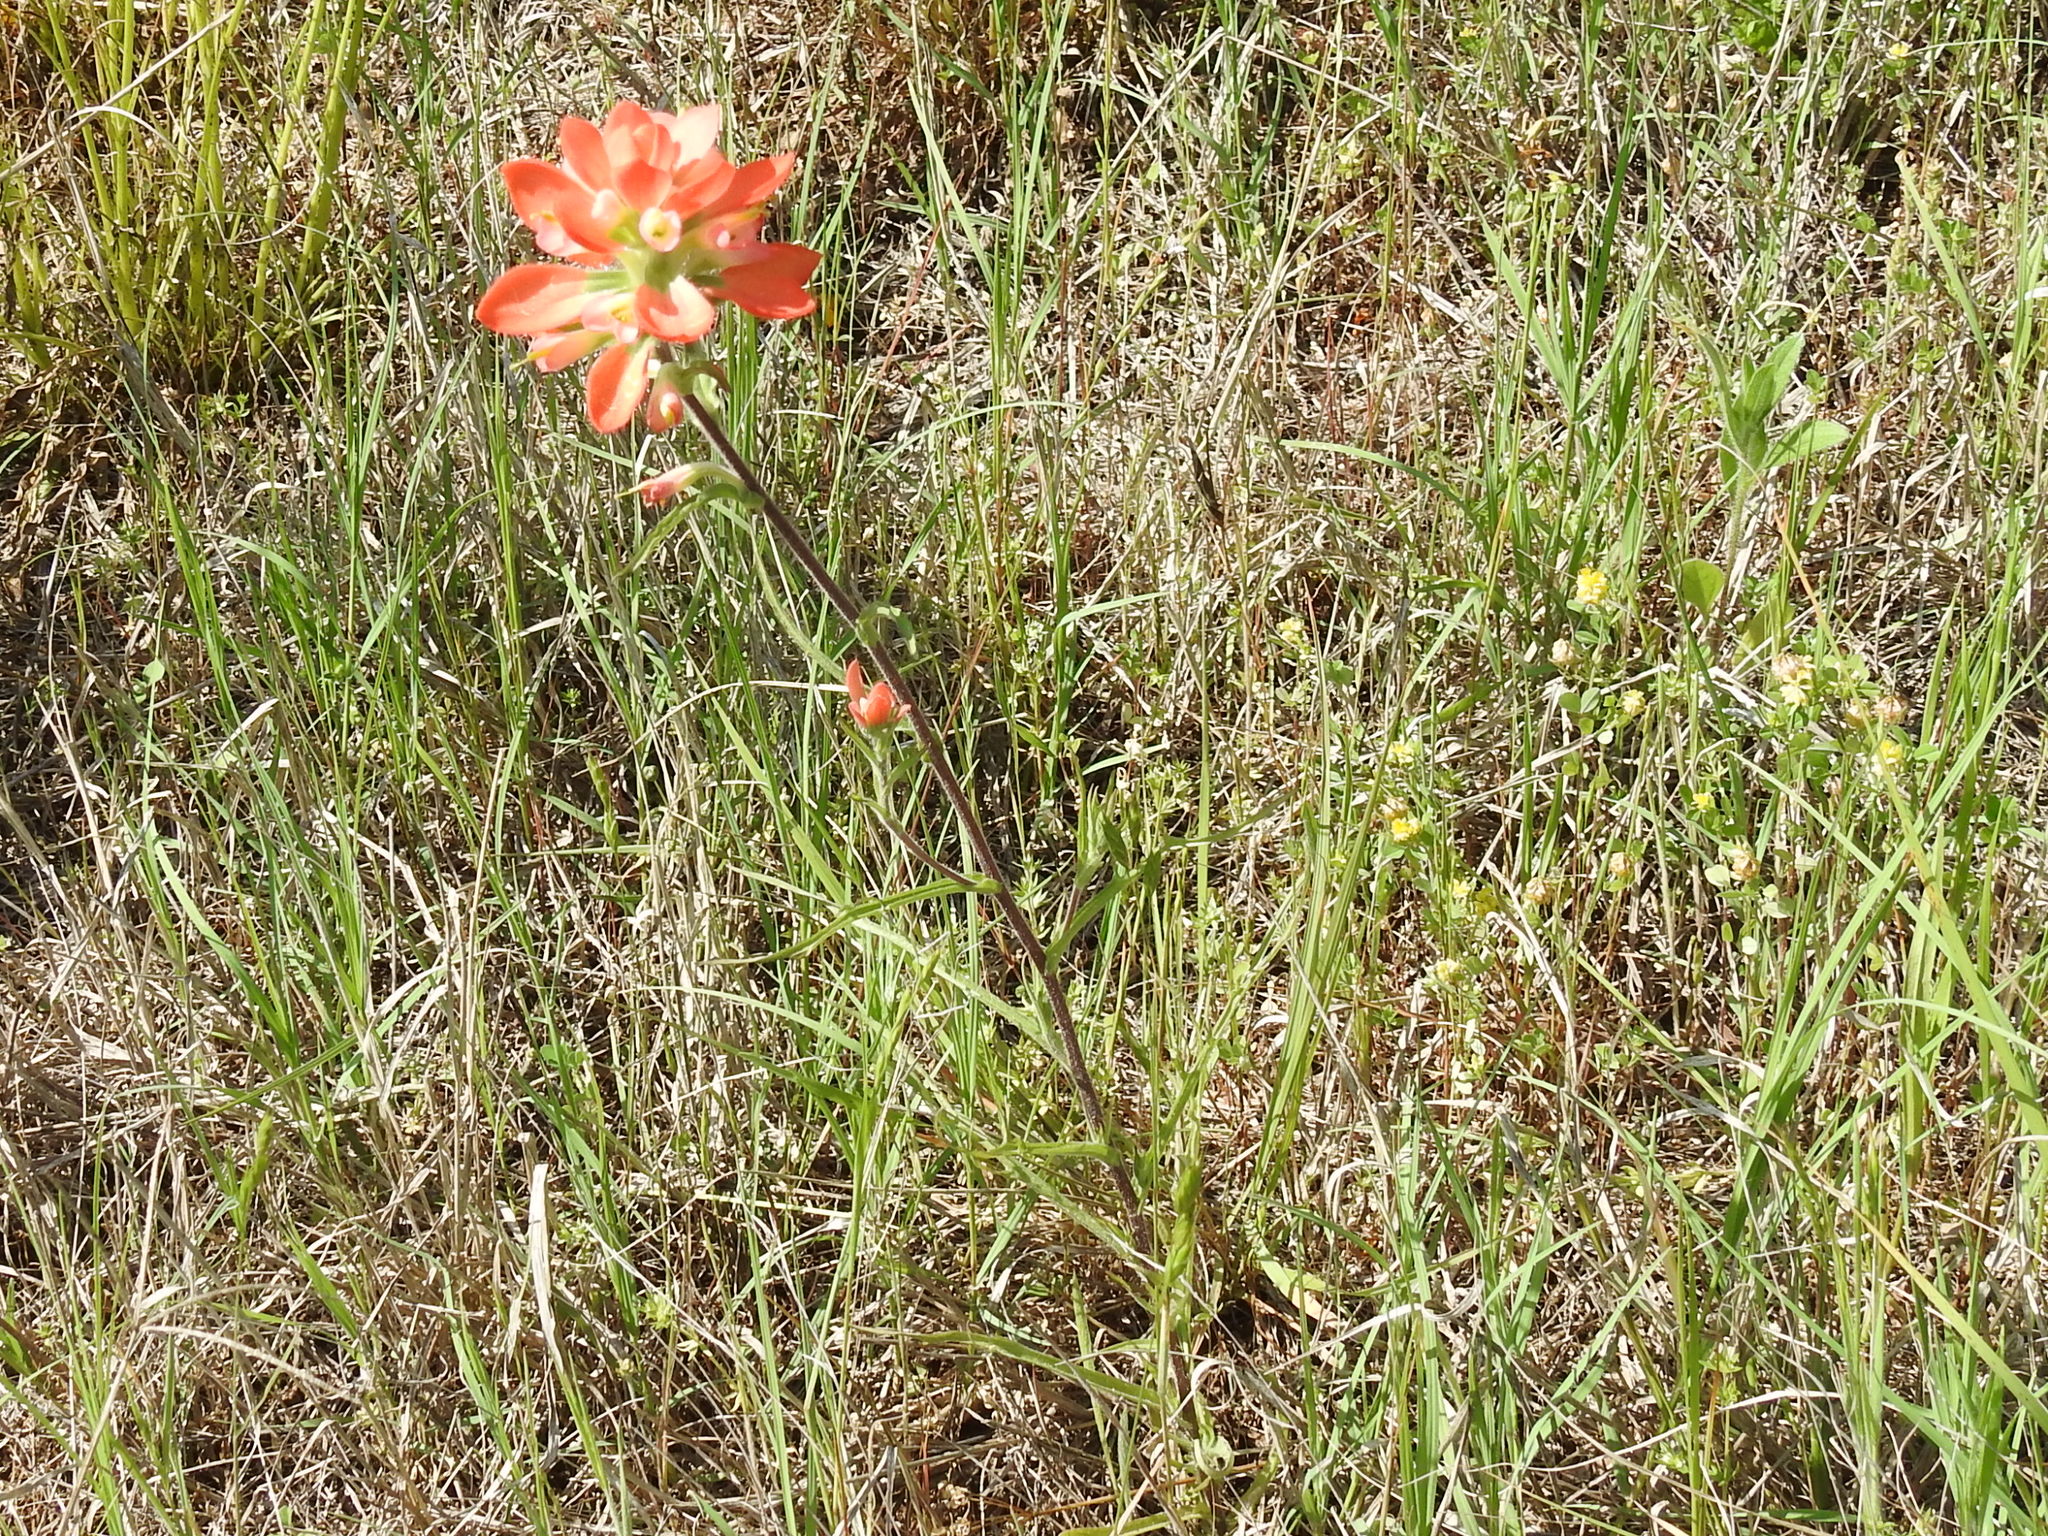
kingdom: Plantae
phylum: Tracheophyta
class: Magnoliopsida
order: Lamiales
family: Orobanchaceae
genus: Castilleja
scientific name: Castilleja indivisa
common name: Texas paintbrush
